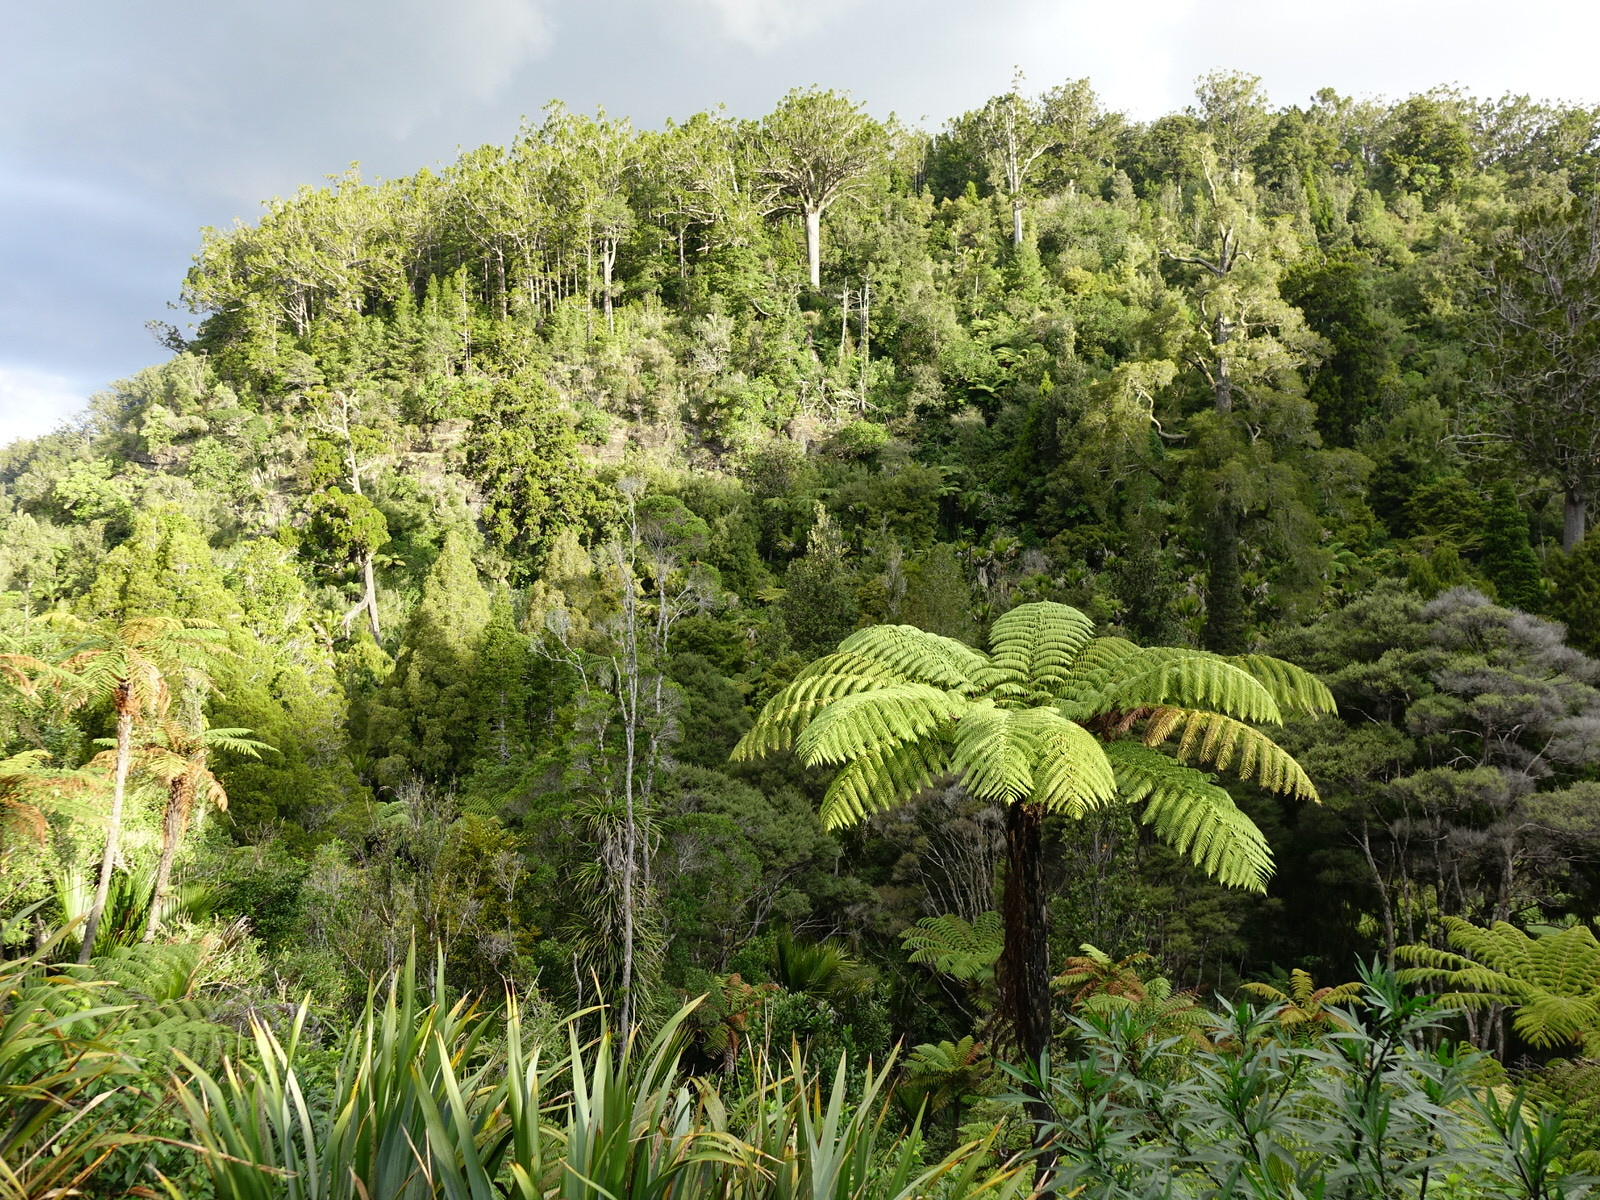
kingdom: Plantae
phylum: Tracheophyta
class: Polypodiopsida
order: Cyatheales
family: Cyatheaceae
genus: Sphaeropteris
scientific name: Sphaeropteris medullaris
